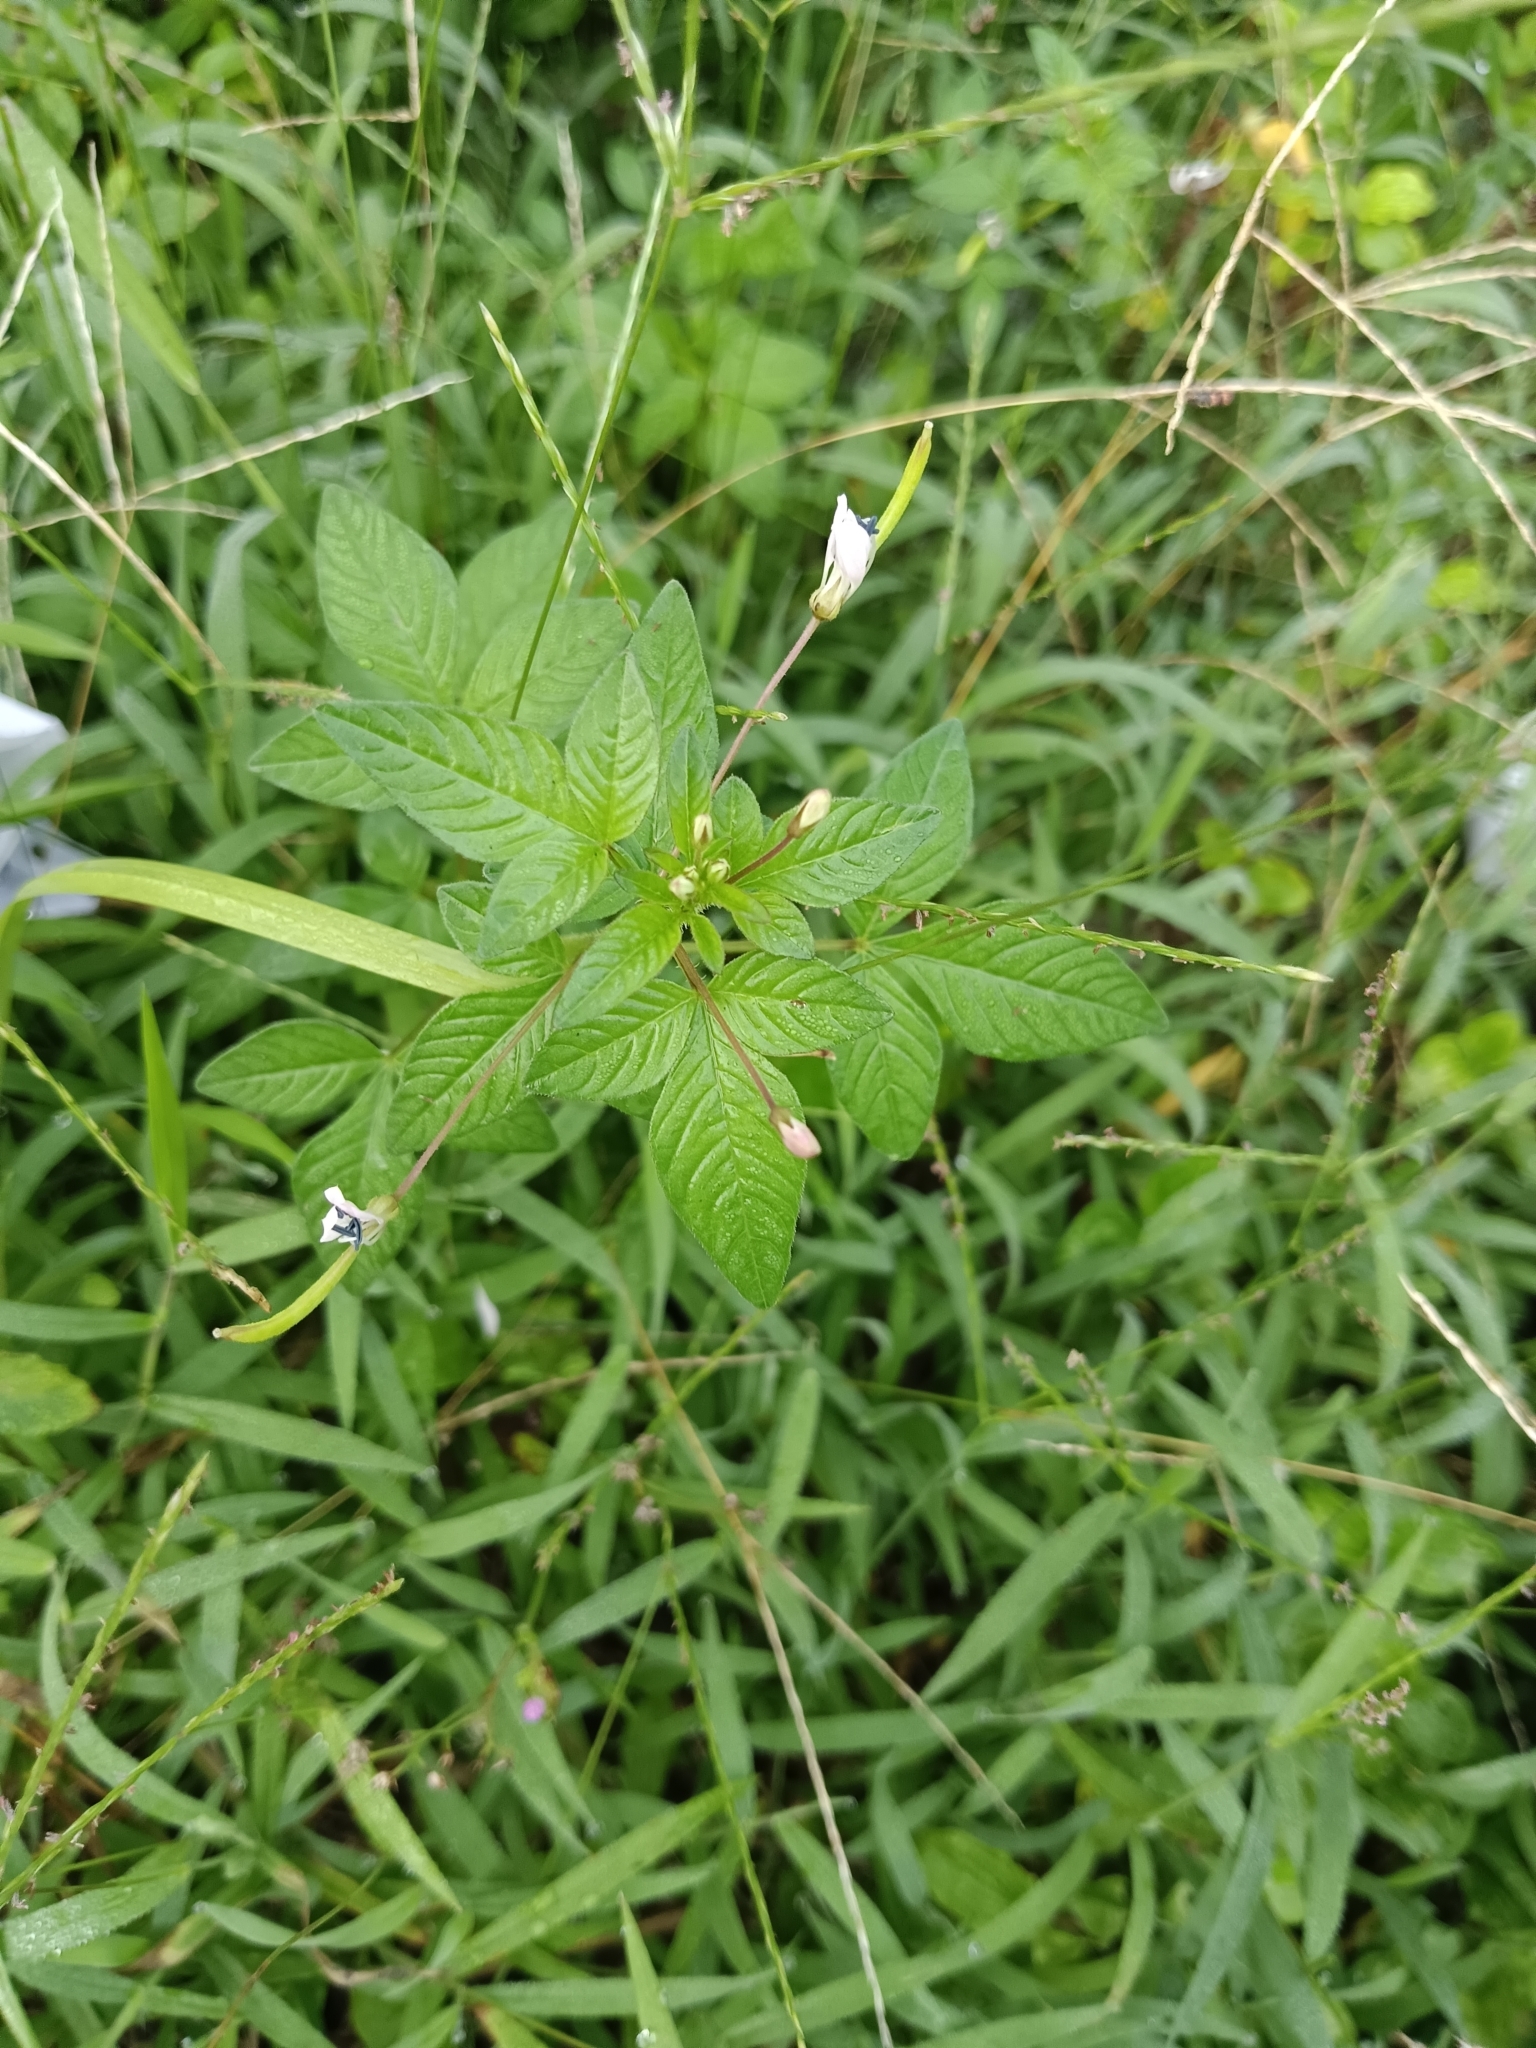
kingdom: Plantae
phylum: Tracheophyta
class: Magnoliopsida
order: Brassicales
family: Cleomaceae
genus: Sieruela
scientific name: Sieruela rutidosperma
